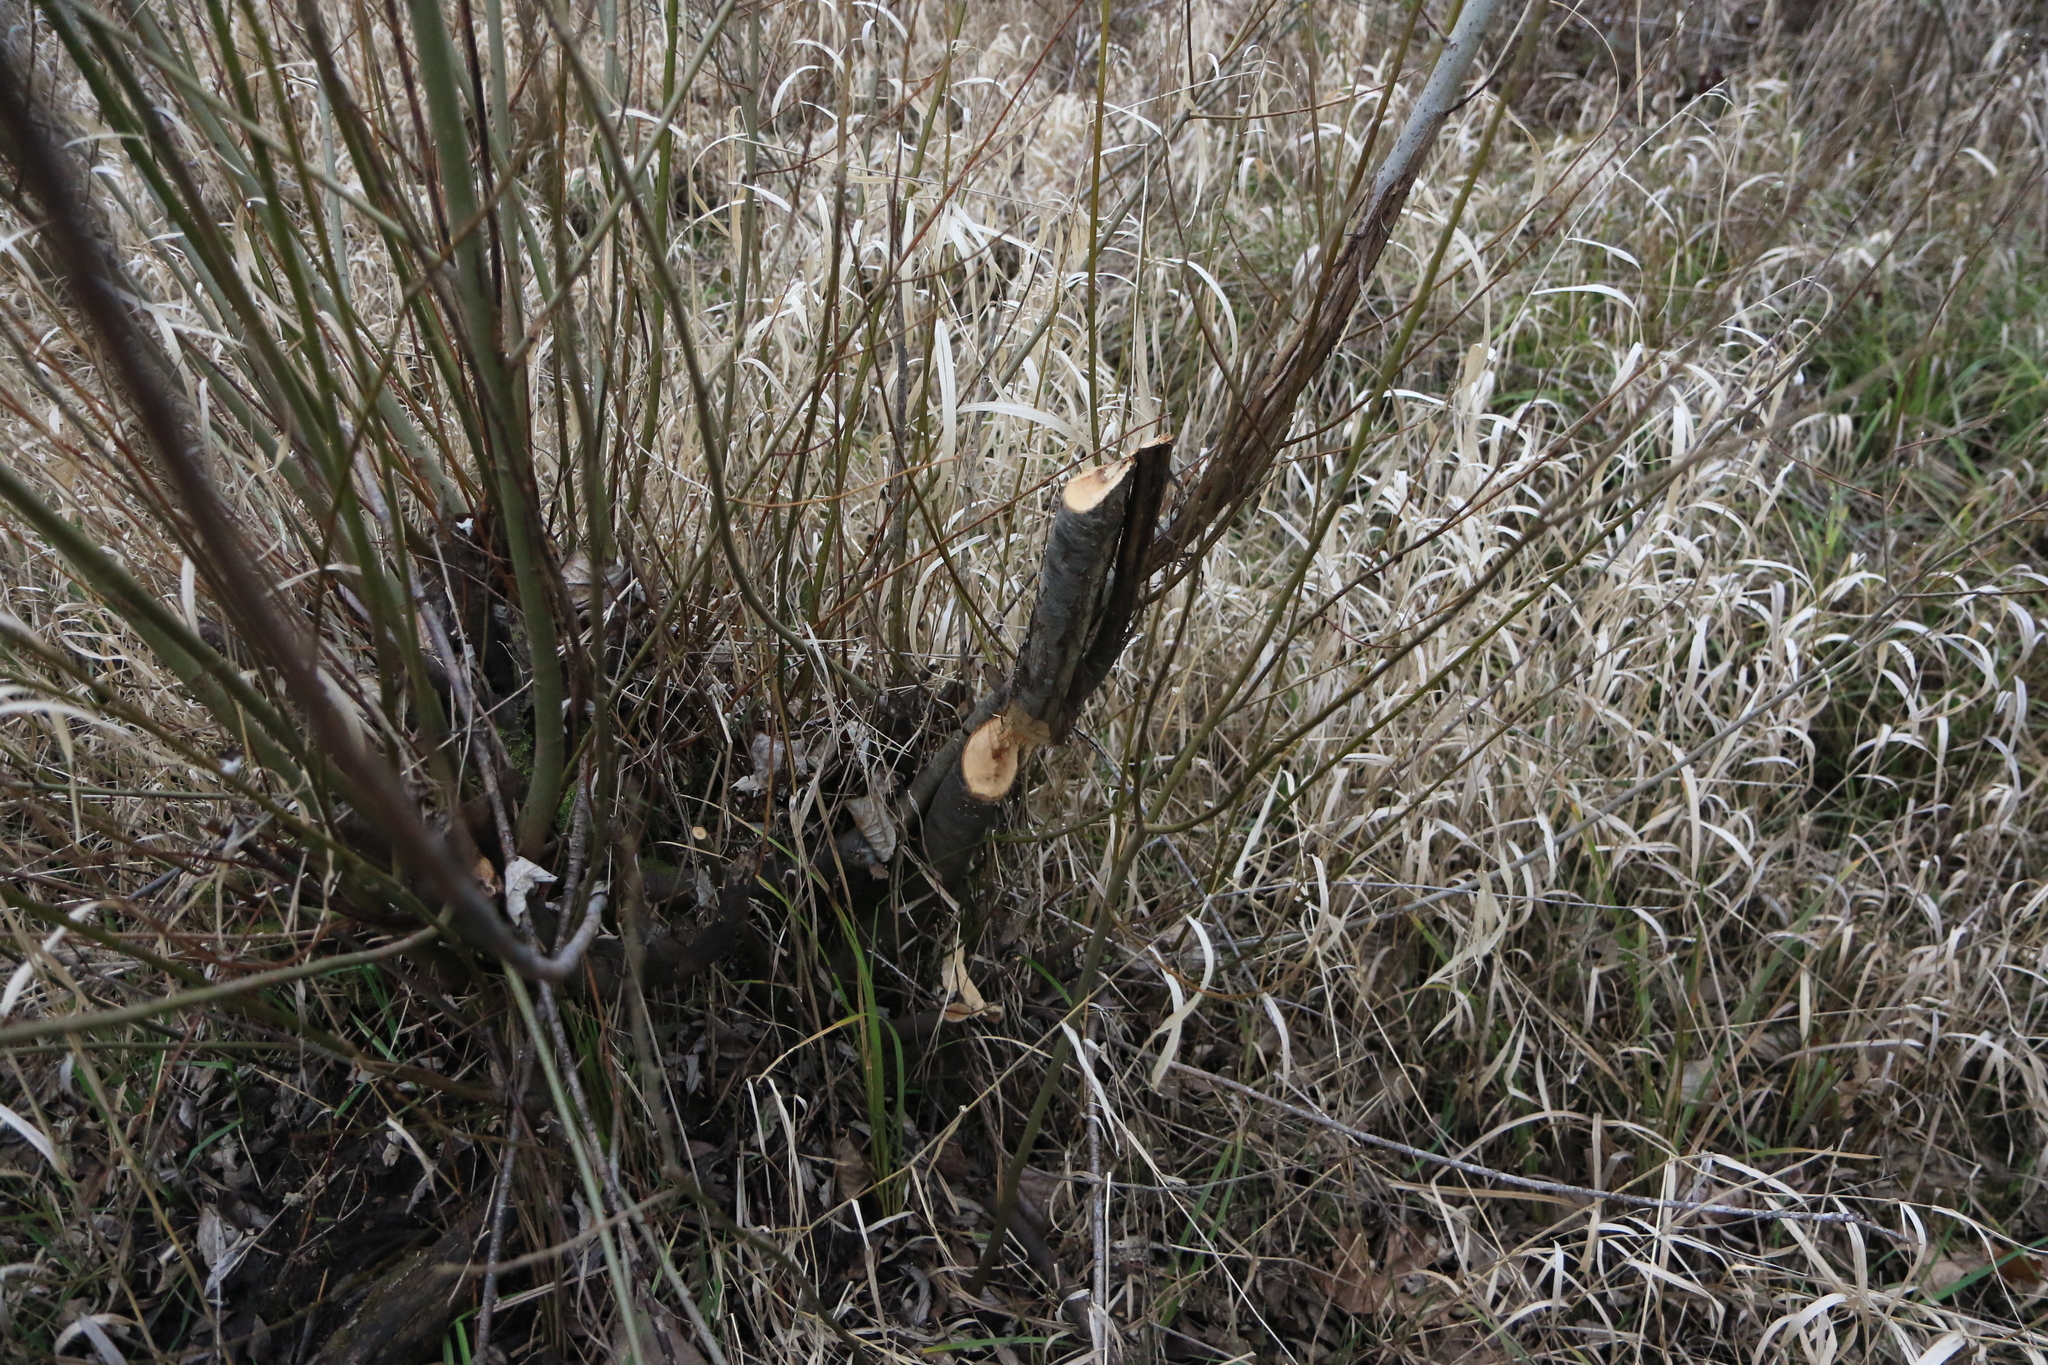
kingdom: Animalia
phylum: Chordata
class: Mammalia
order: Rodentia
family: Castoridae
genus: Castor
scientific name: Castor canadensis
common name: American beaver
